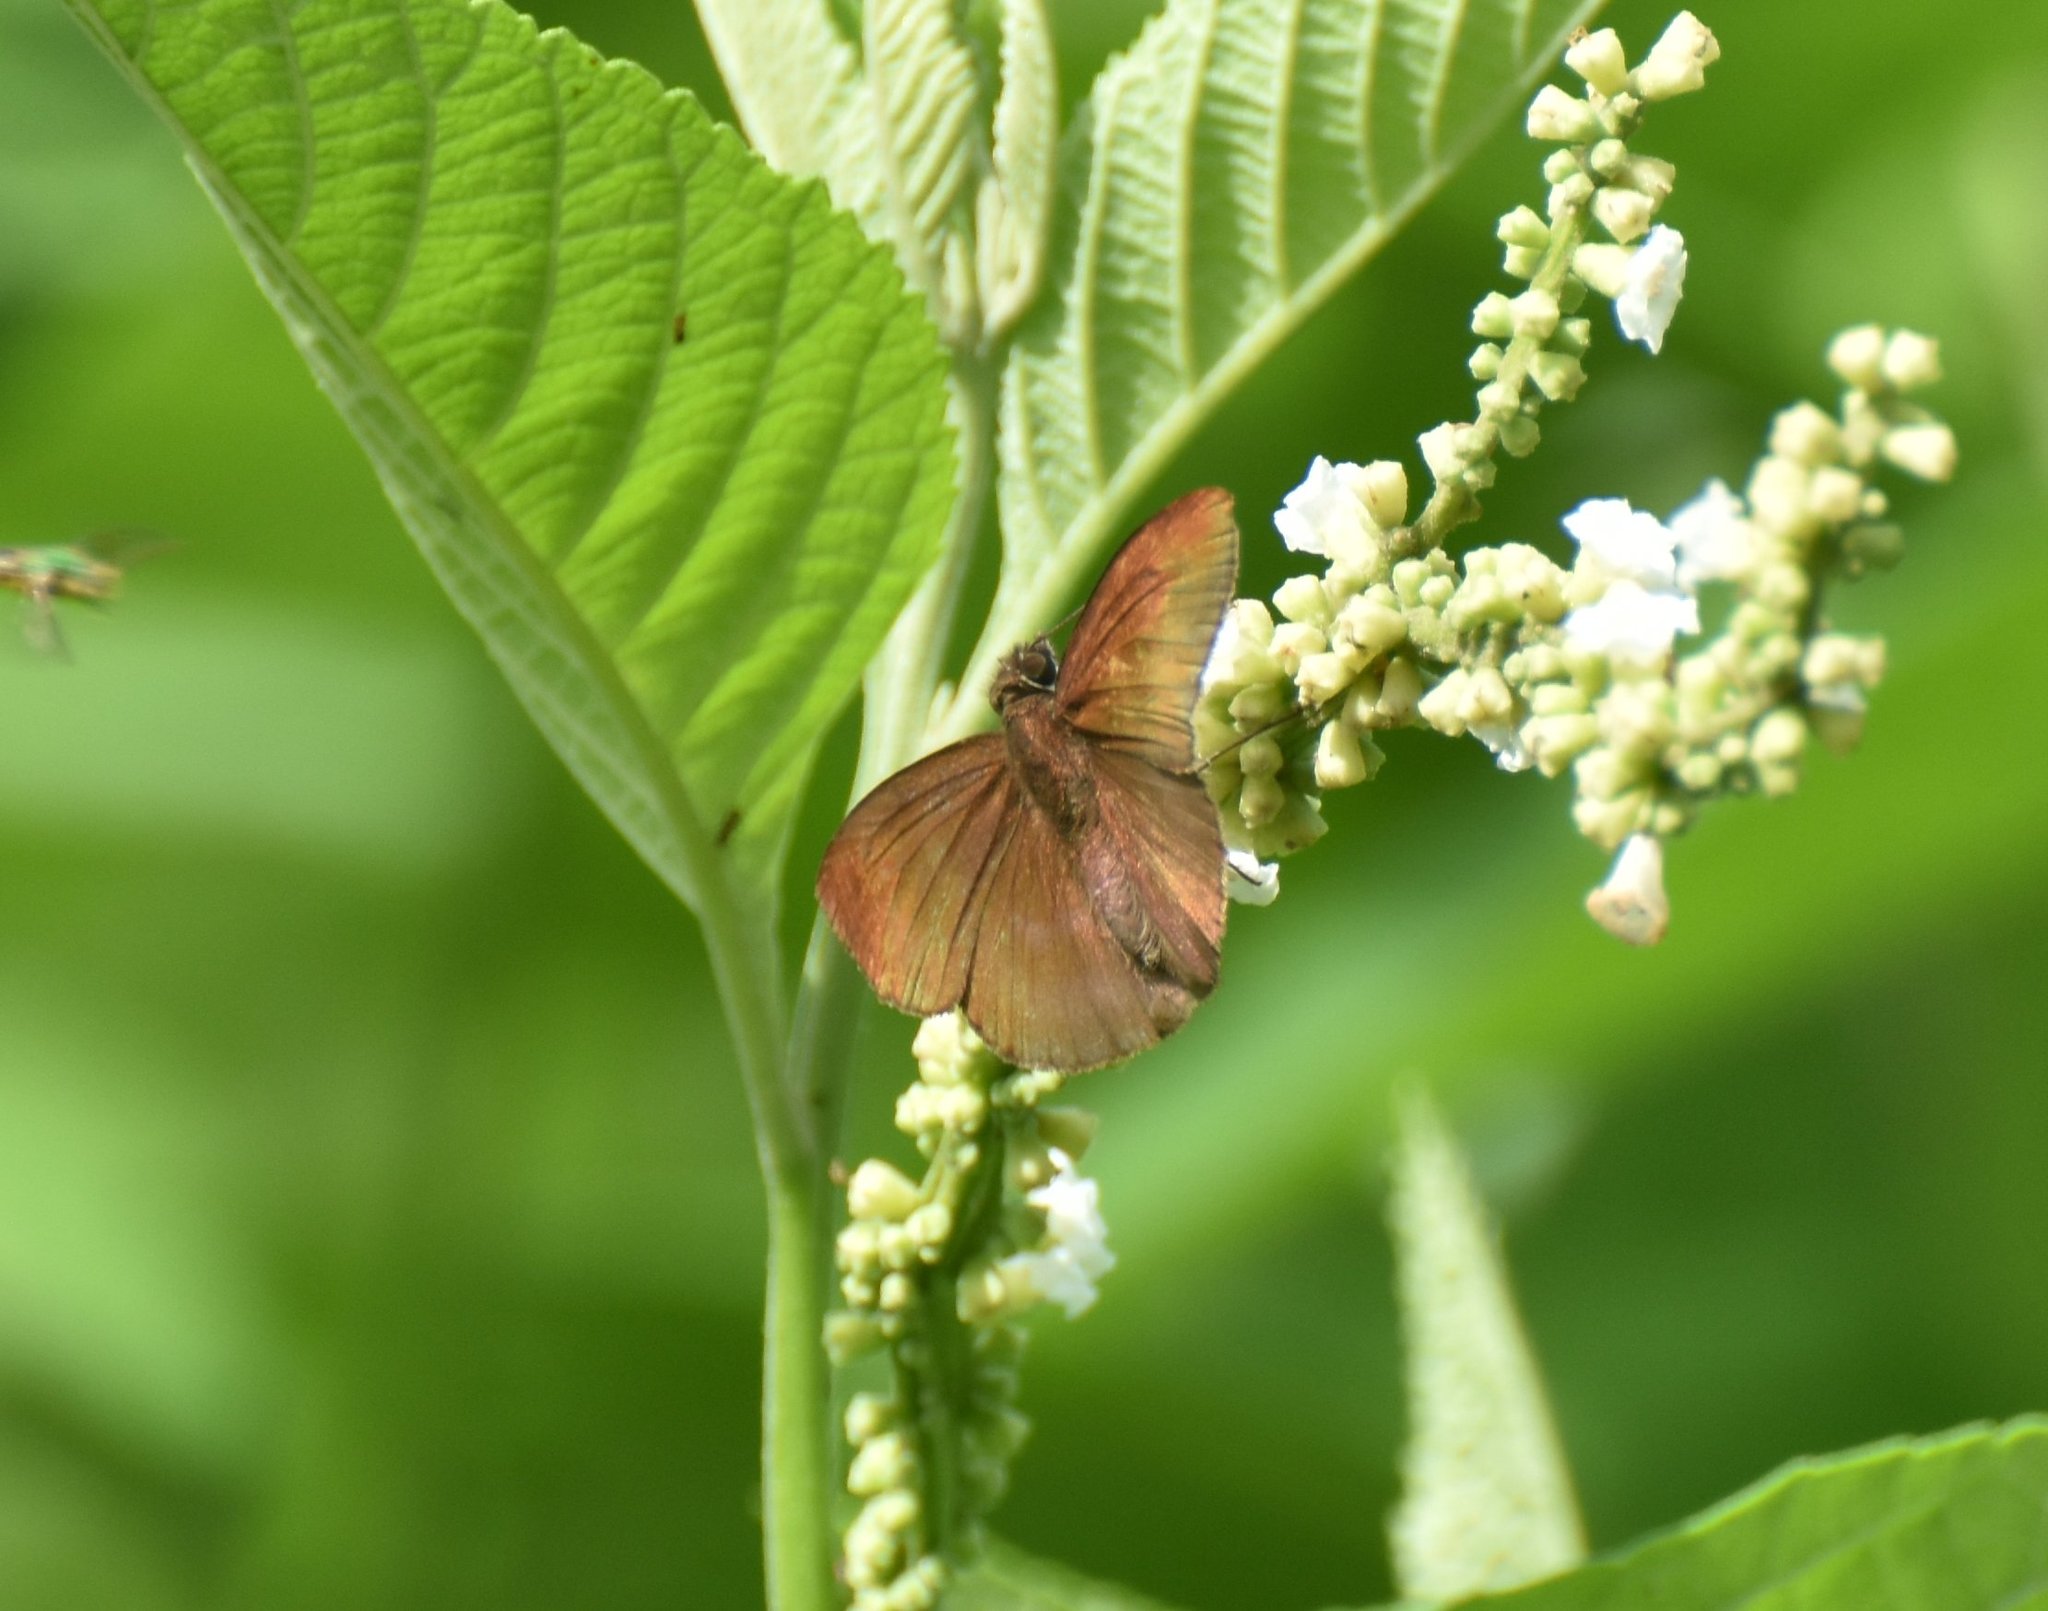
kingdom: Animalia
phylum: Arthropoda
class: Insecta
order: Lepidoptera
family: Hesperiidae
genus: Anastrus
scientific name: Anastrus petius
